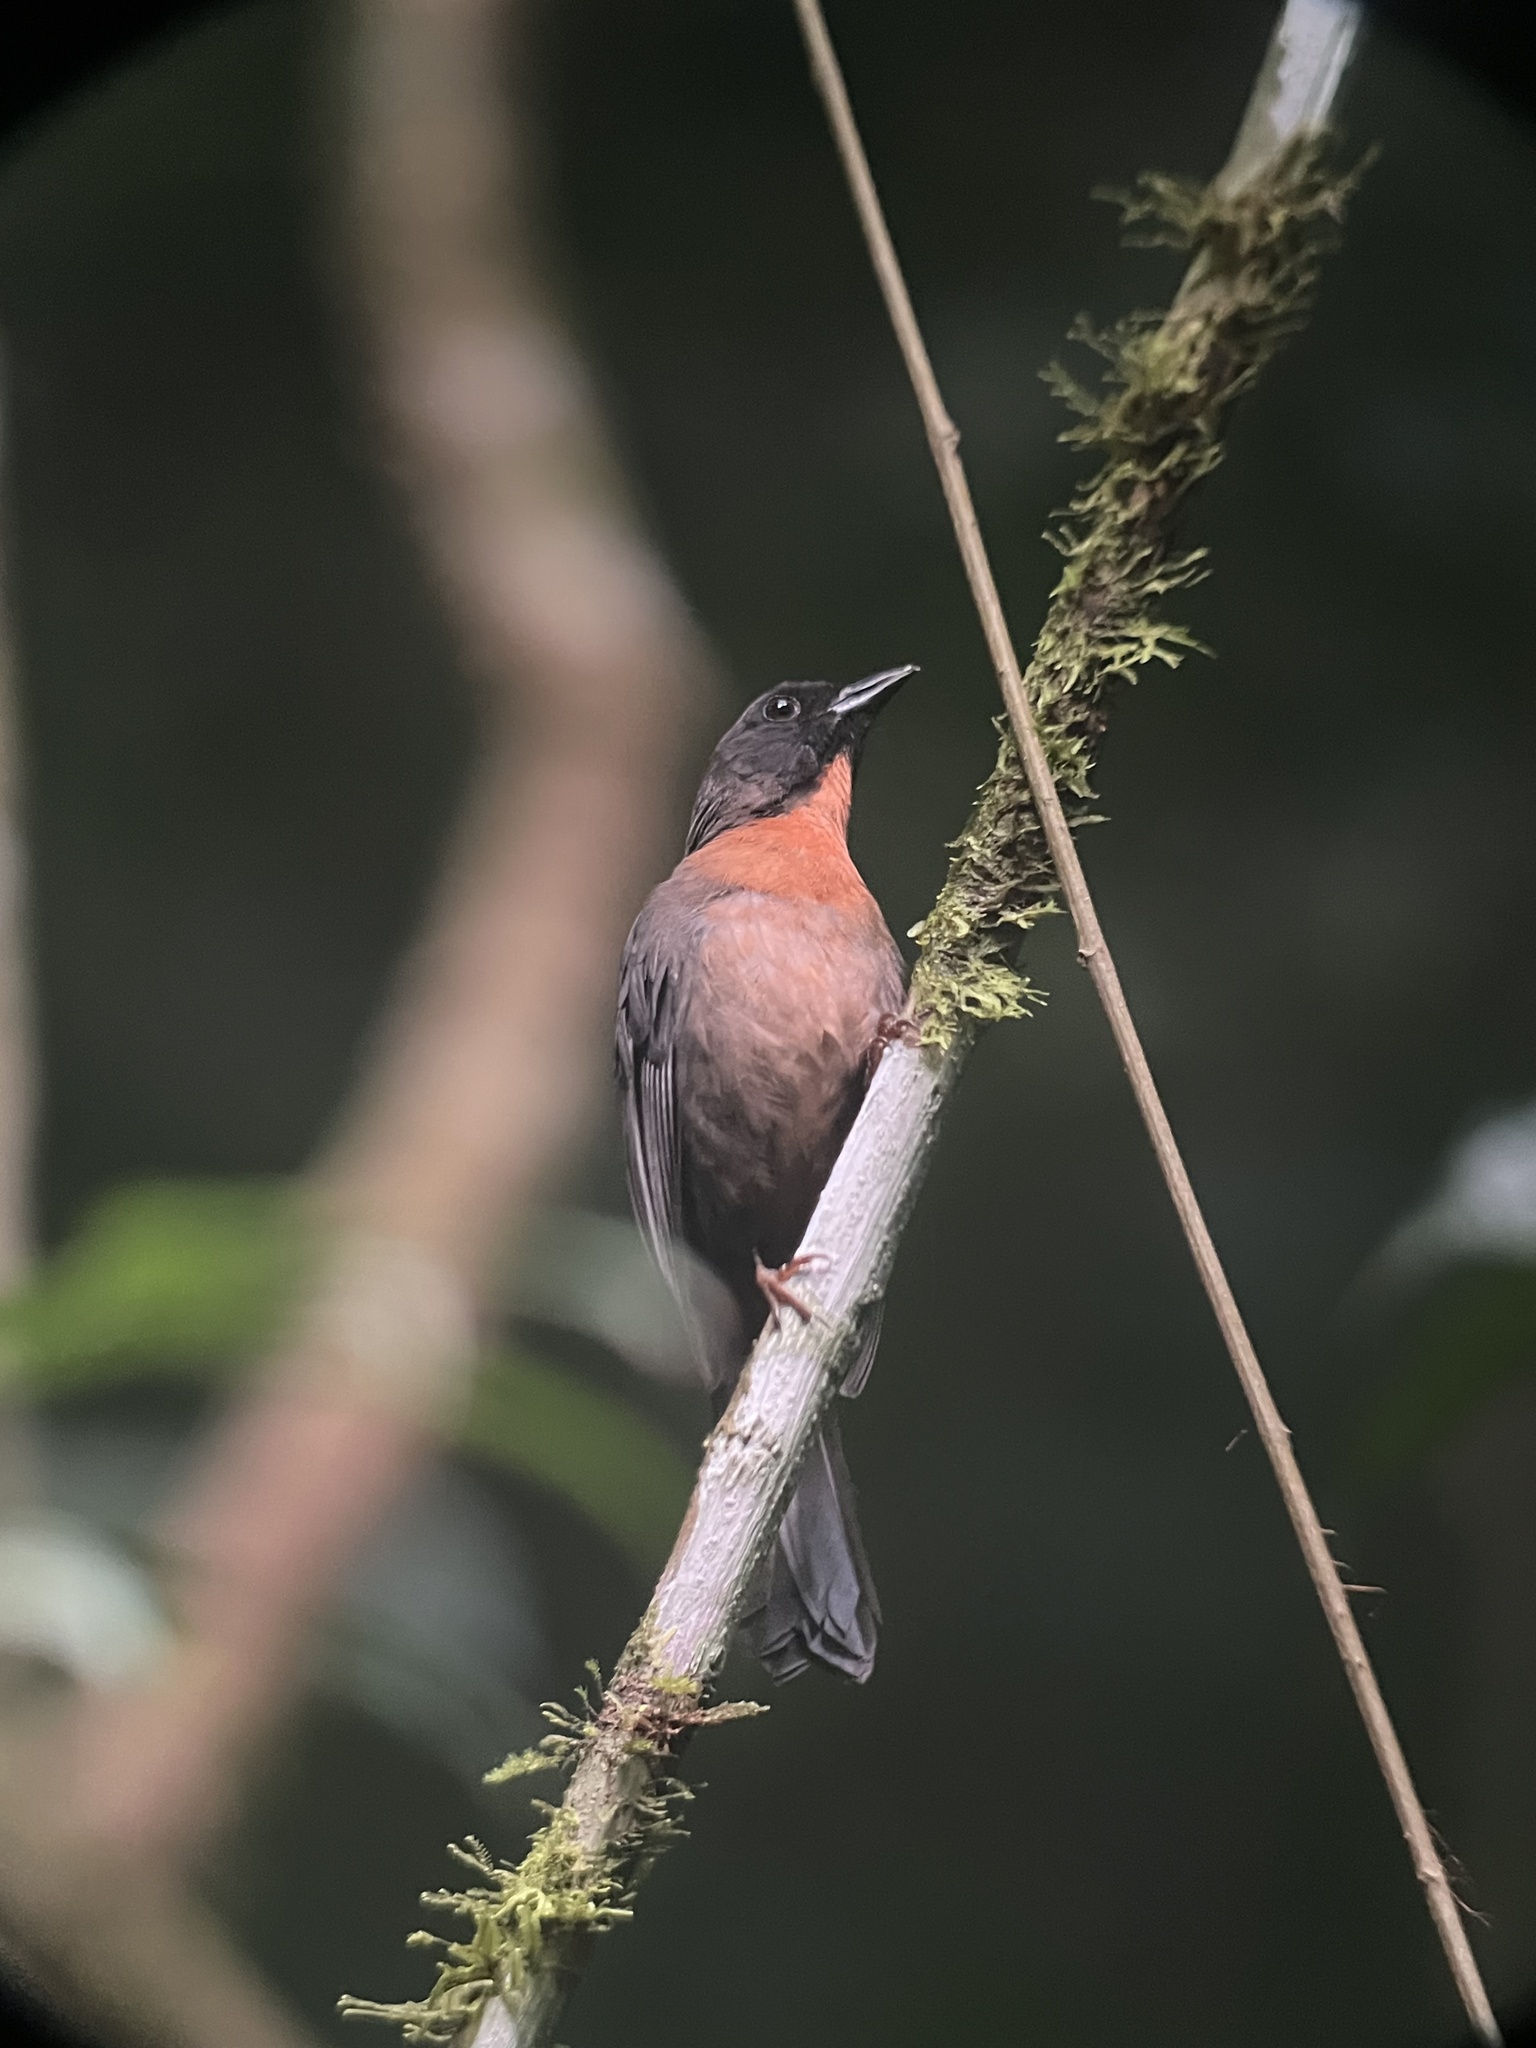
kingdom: Animalia
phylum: Chordata
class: Aves
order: Passeriformes
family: Cardinalidae
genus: Habia
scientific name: Habia atrimaxillaris
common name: Black-cheeked ant-tanager
